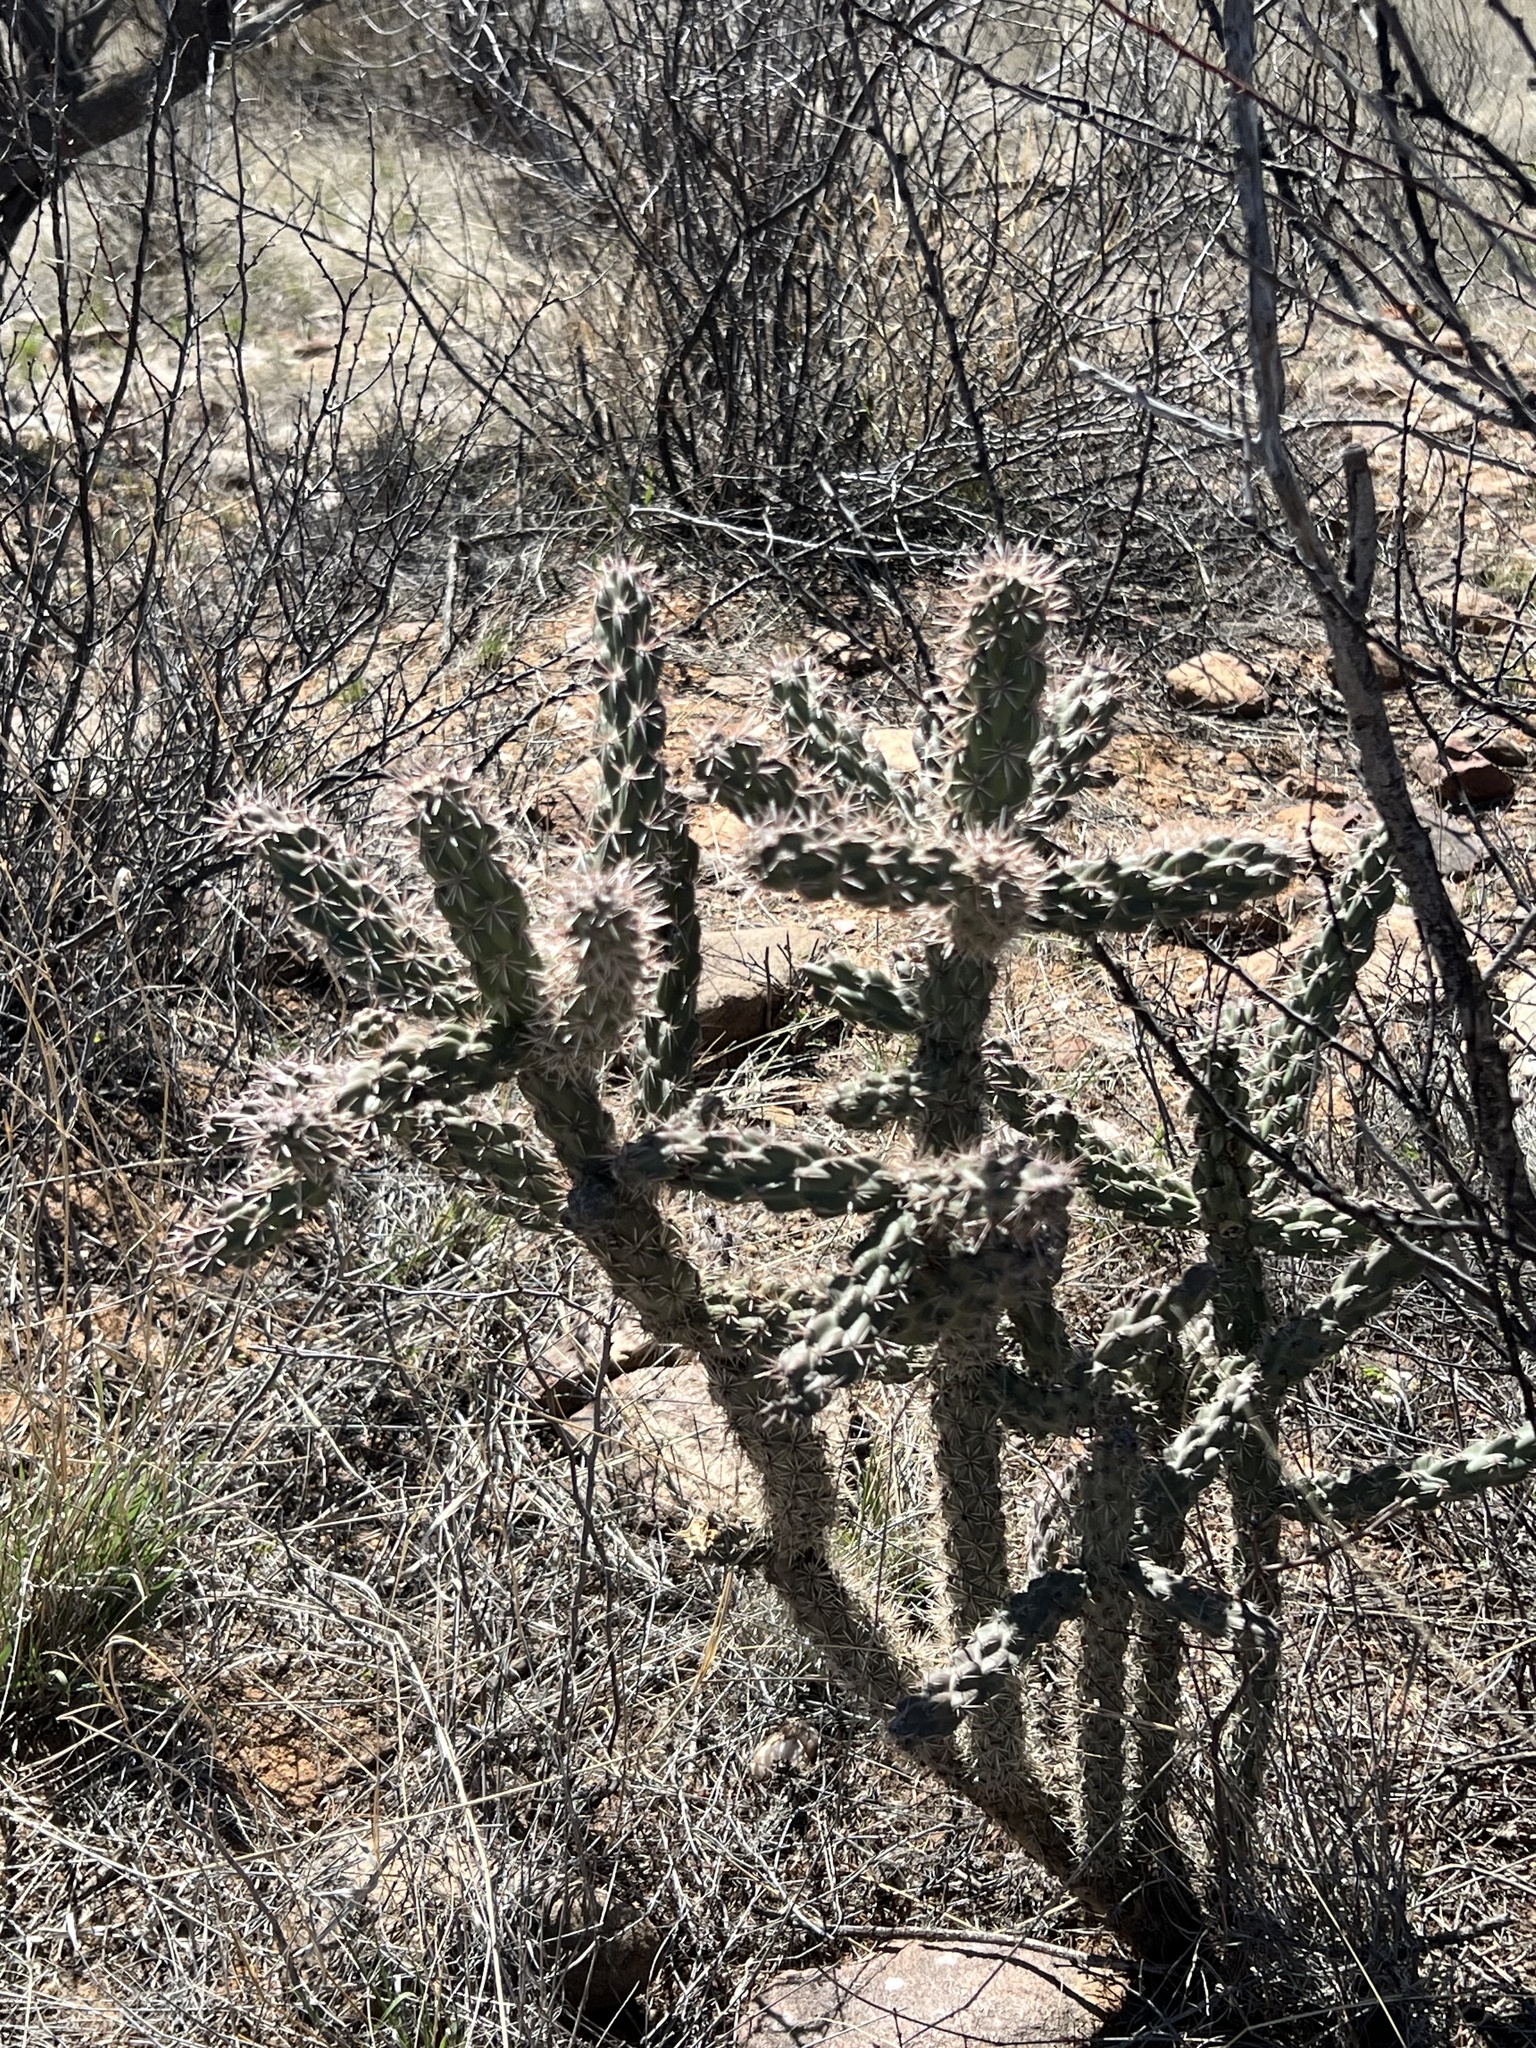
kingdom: Plantae
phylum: Tracheophyta
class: Magnoliopsida
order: Caryophyllales
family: Cactaceae
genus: Cylindropuntia
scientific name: Cylindropuntia imbricata
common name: Candelabrum cactus
